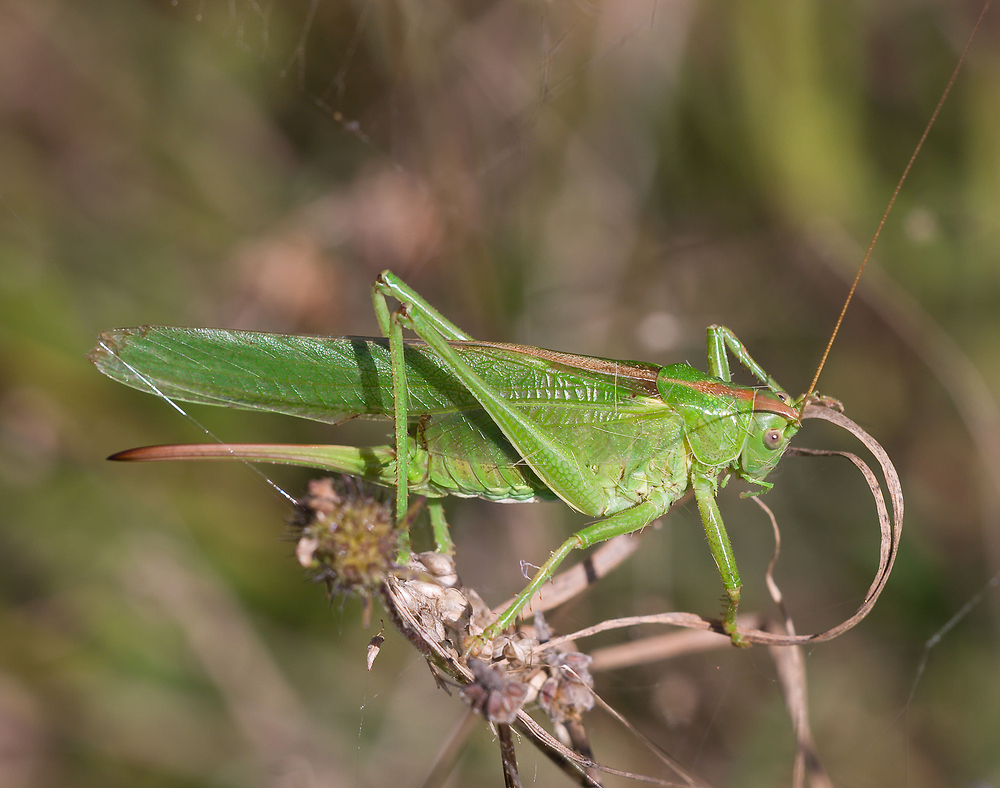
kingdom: Animalia
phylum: Arthropoda
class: Insecta
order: Orthoptera
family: Tettigoniidae
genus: Tettigonia
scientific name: Tettigonia viridissima
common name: Great green bush-cricket
